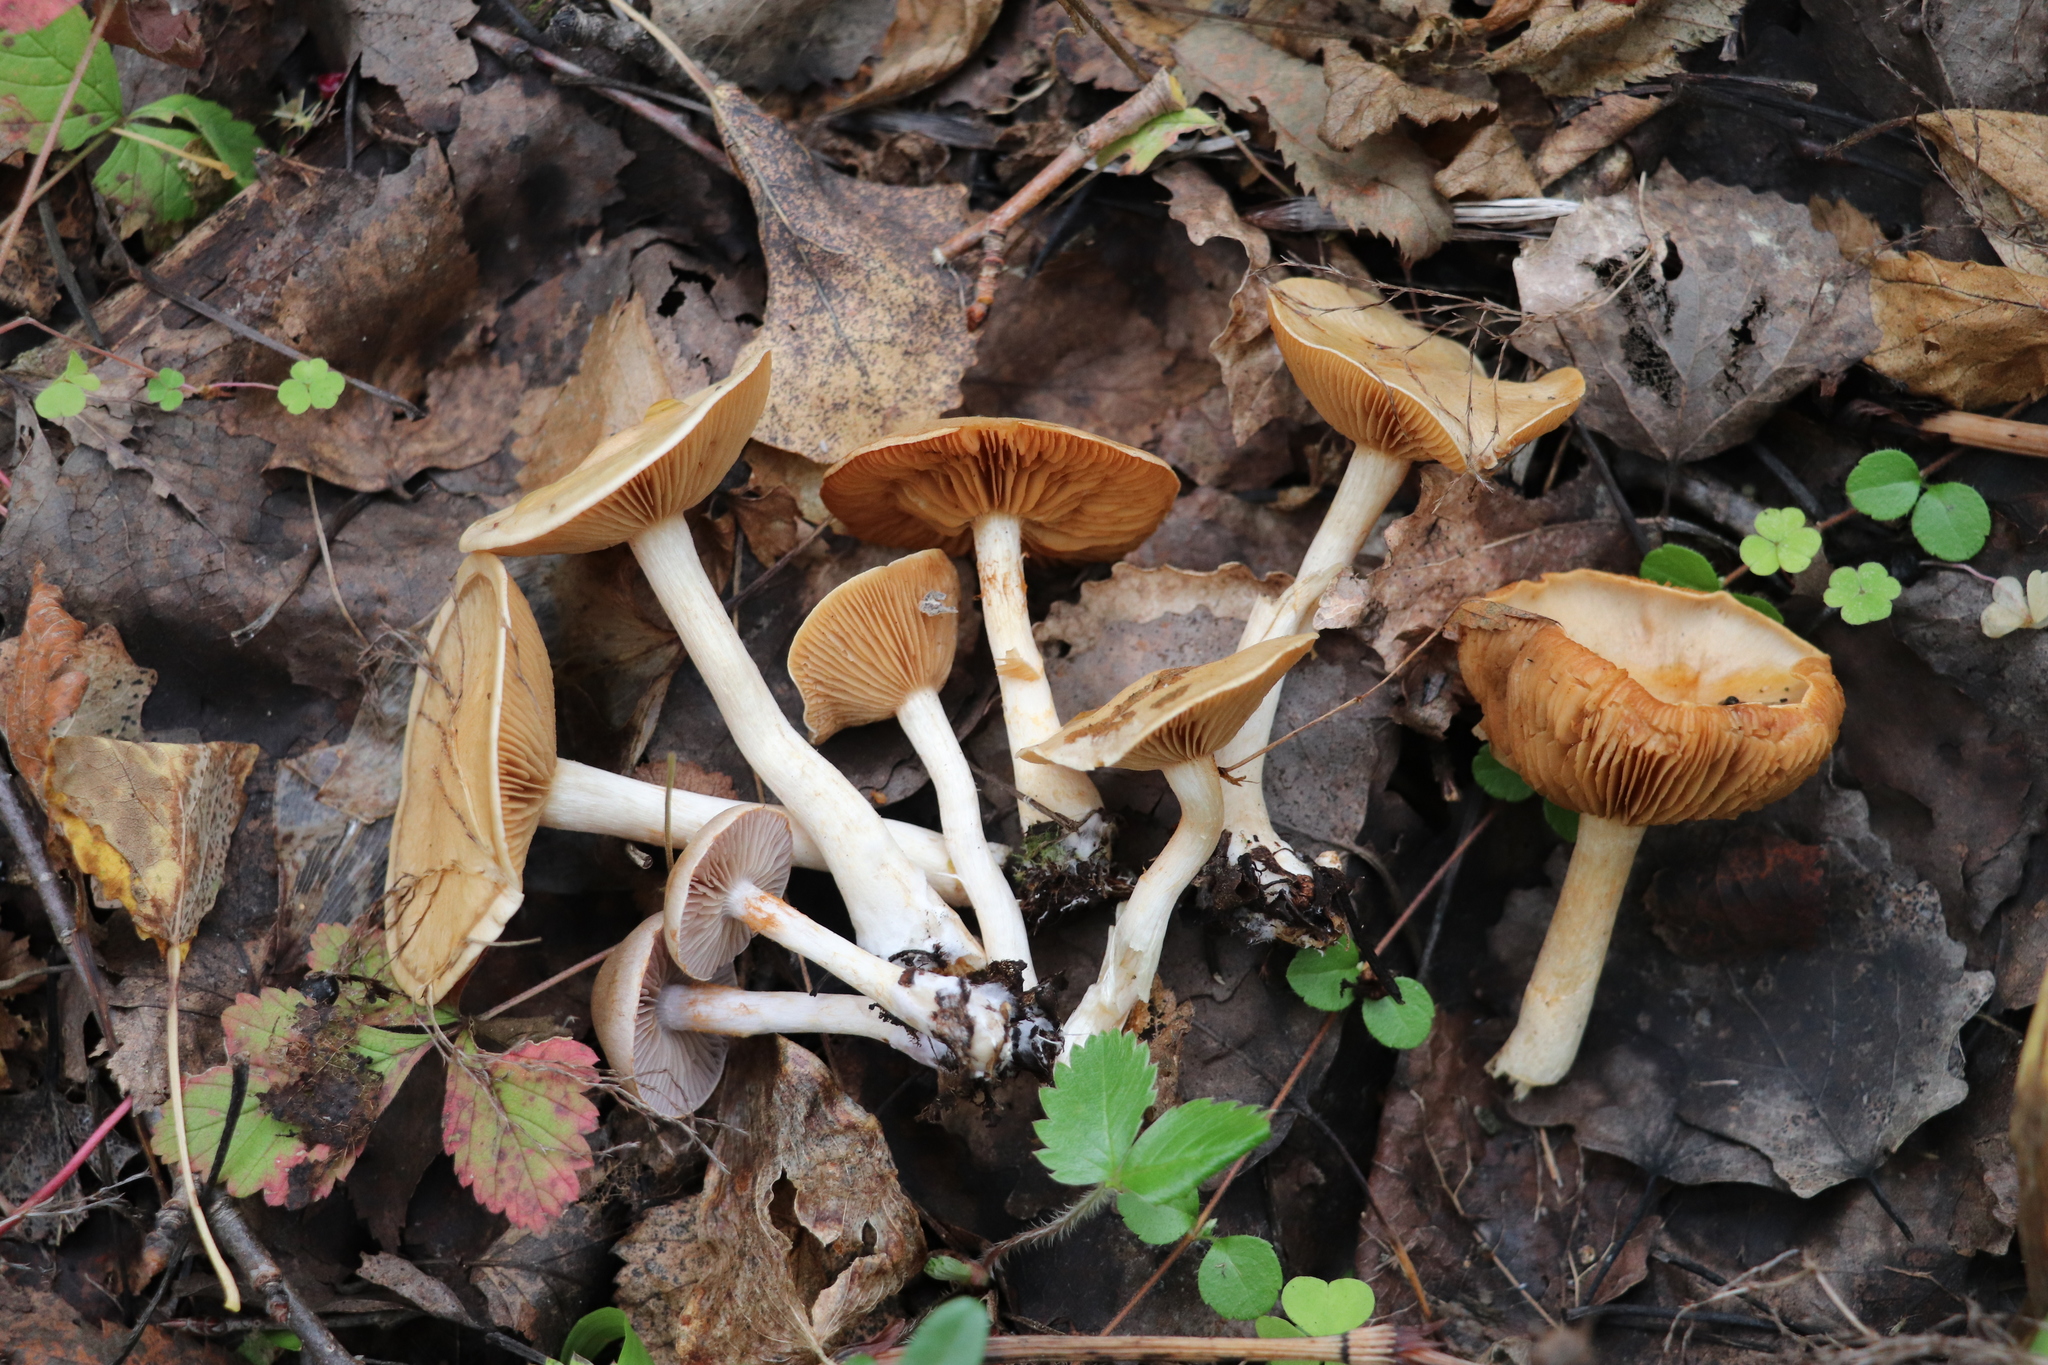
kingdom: Fungi
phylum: Basidiomycota
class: Agaricomycetes
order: Agaricales
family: Cortinariaceae
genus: Cortinarius
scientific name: Cortinarius anomalus
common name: Variable webcap
